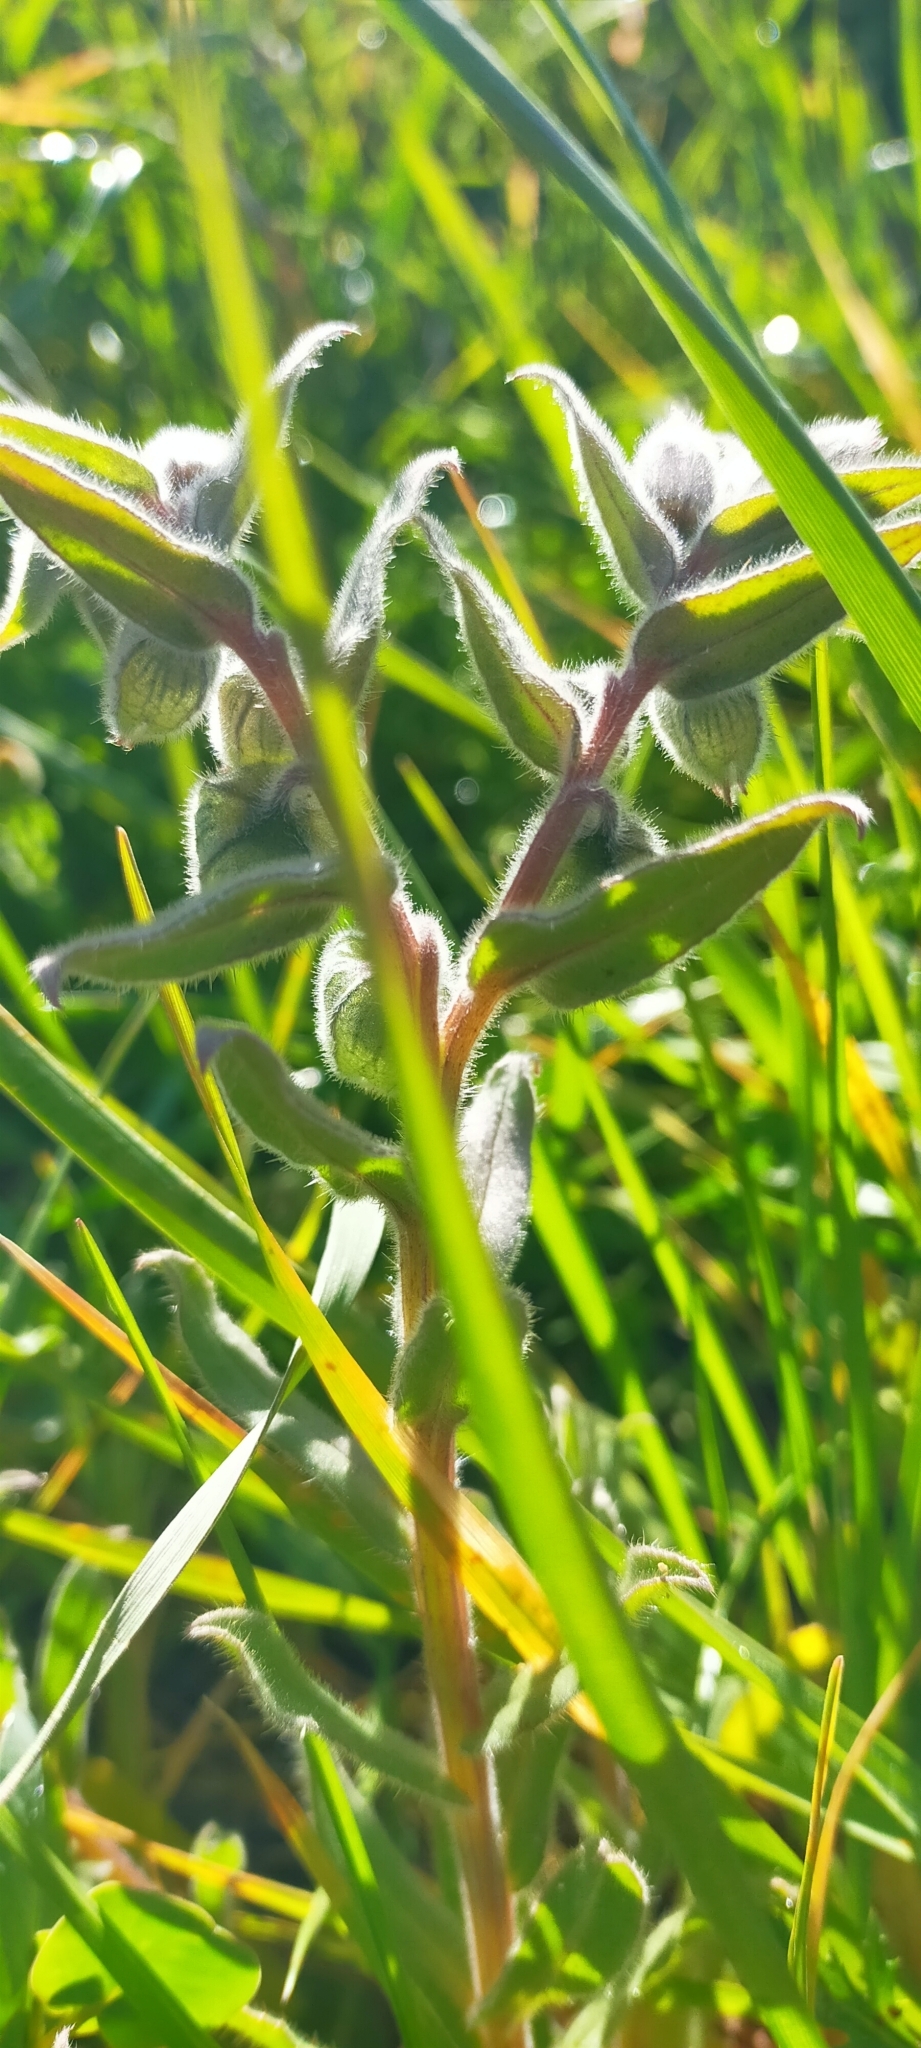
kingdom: Plantae
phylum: Tracheophyta
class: Magnoliopsida
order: Boraginales
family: Boraginaceae
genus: Nonea
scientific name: Nonea vesicaria
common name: Red monkswort
